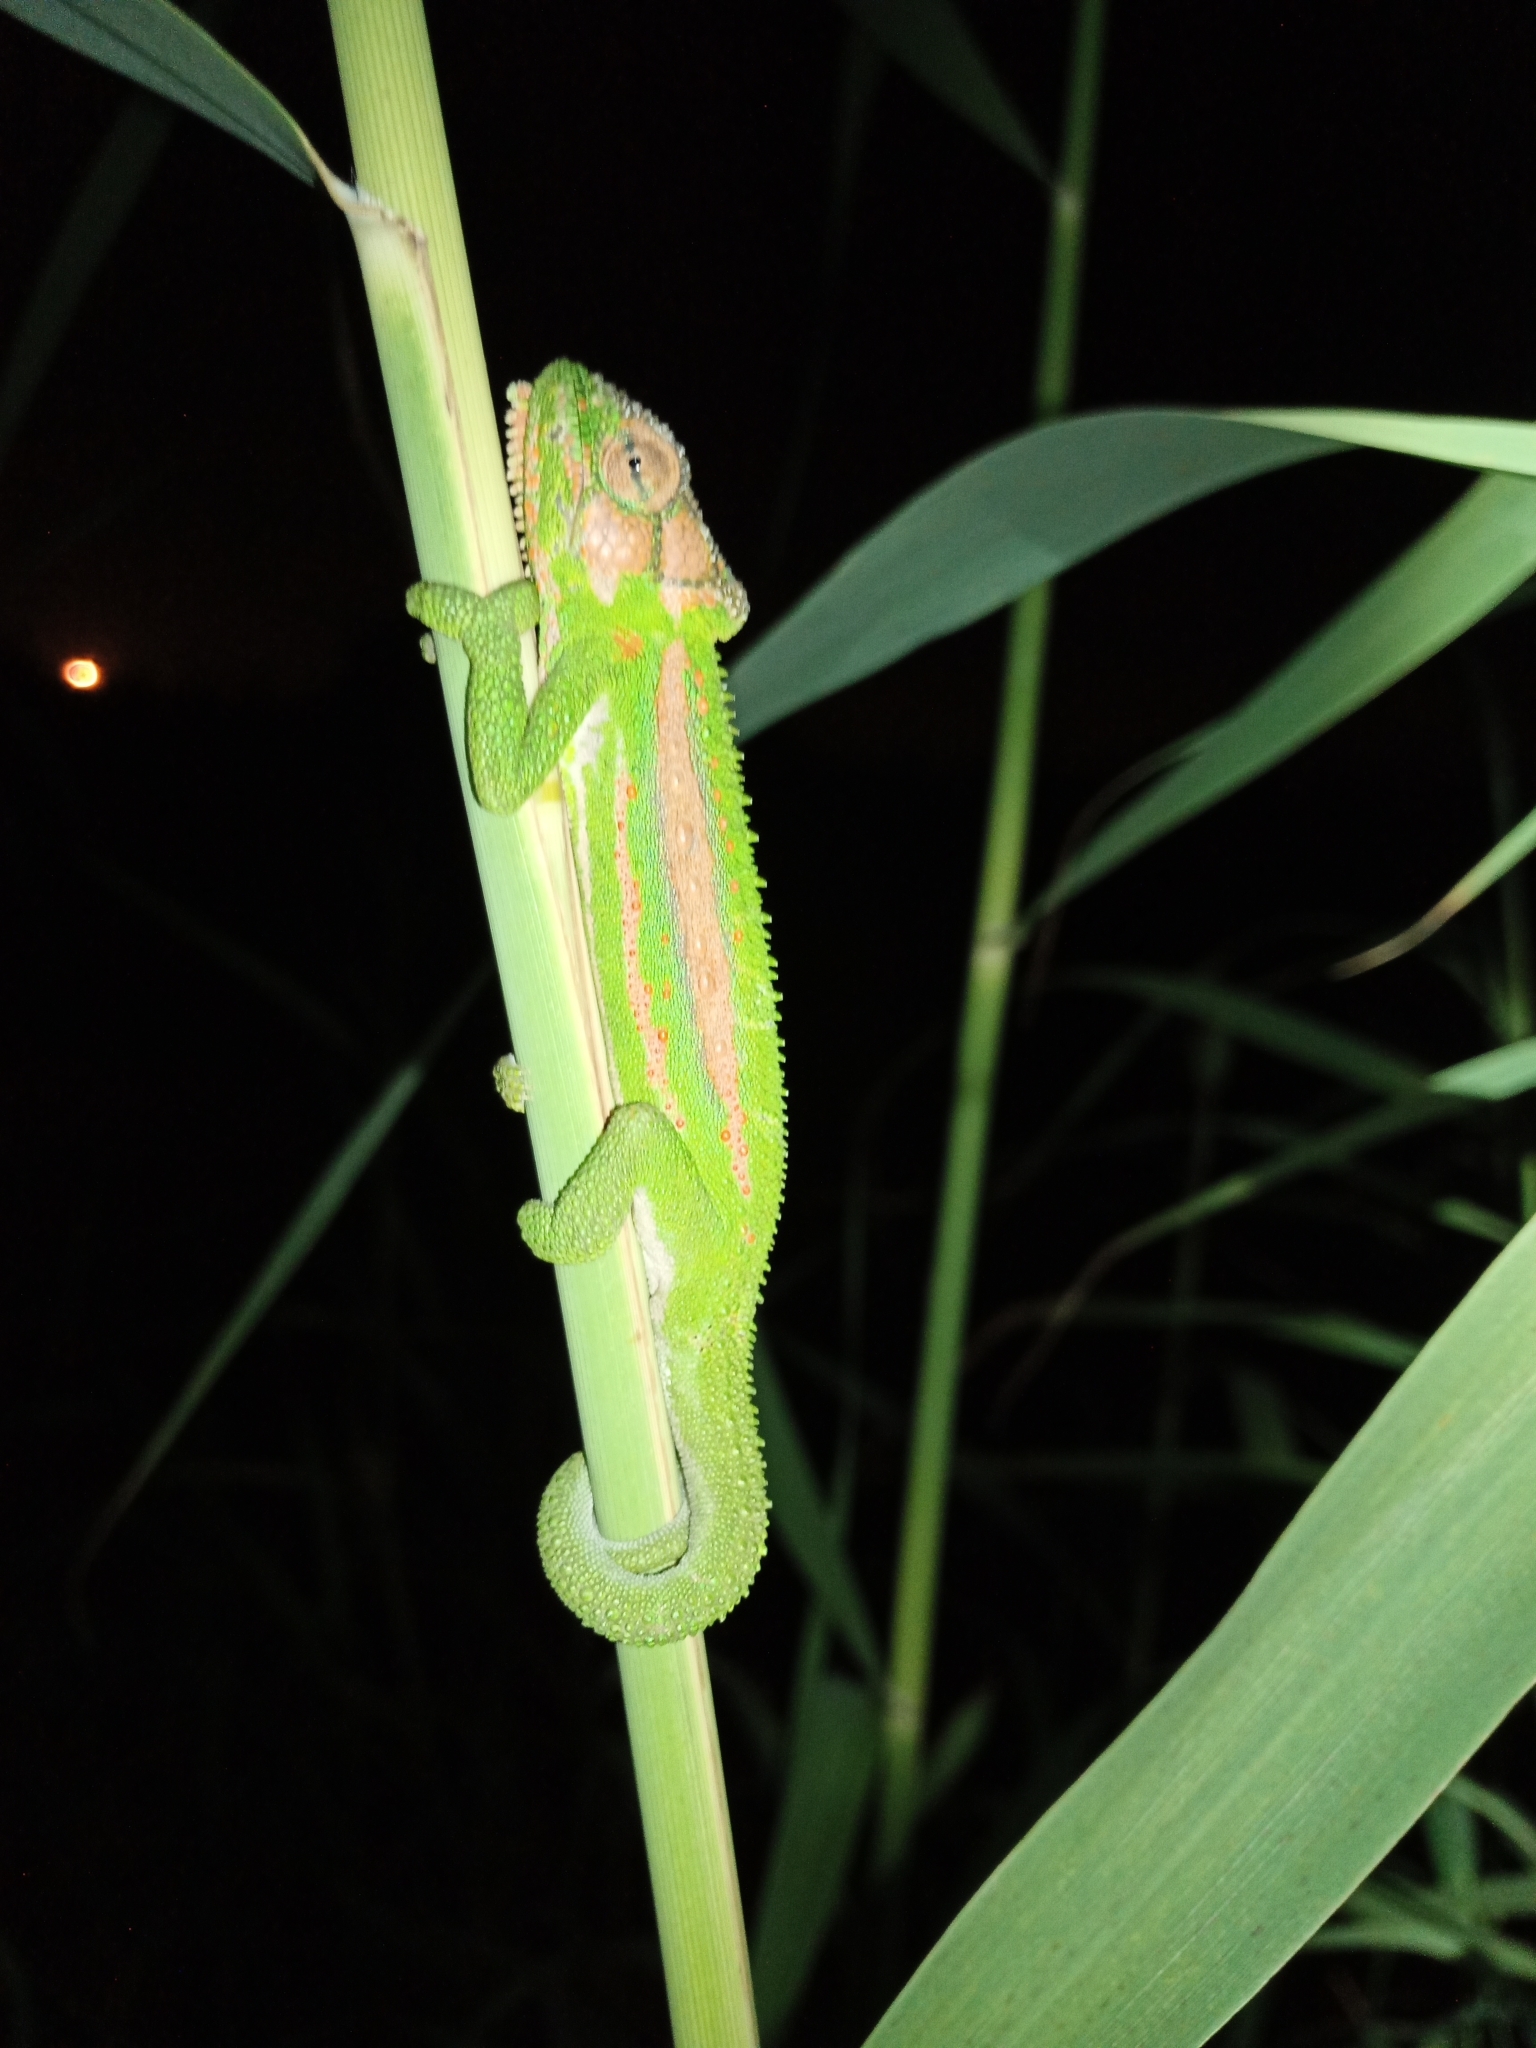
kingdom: Animalia
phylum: Chordata
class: Squamata
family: Chamaeleonidae
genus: Bradypodion
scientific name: Bradypodion pumilum
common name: Cape dwarf chameleon
